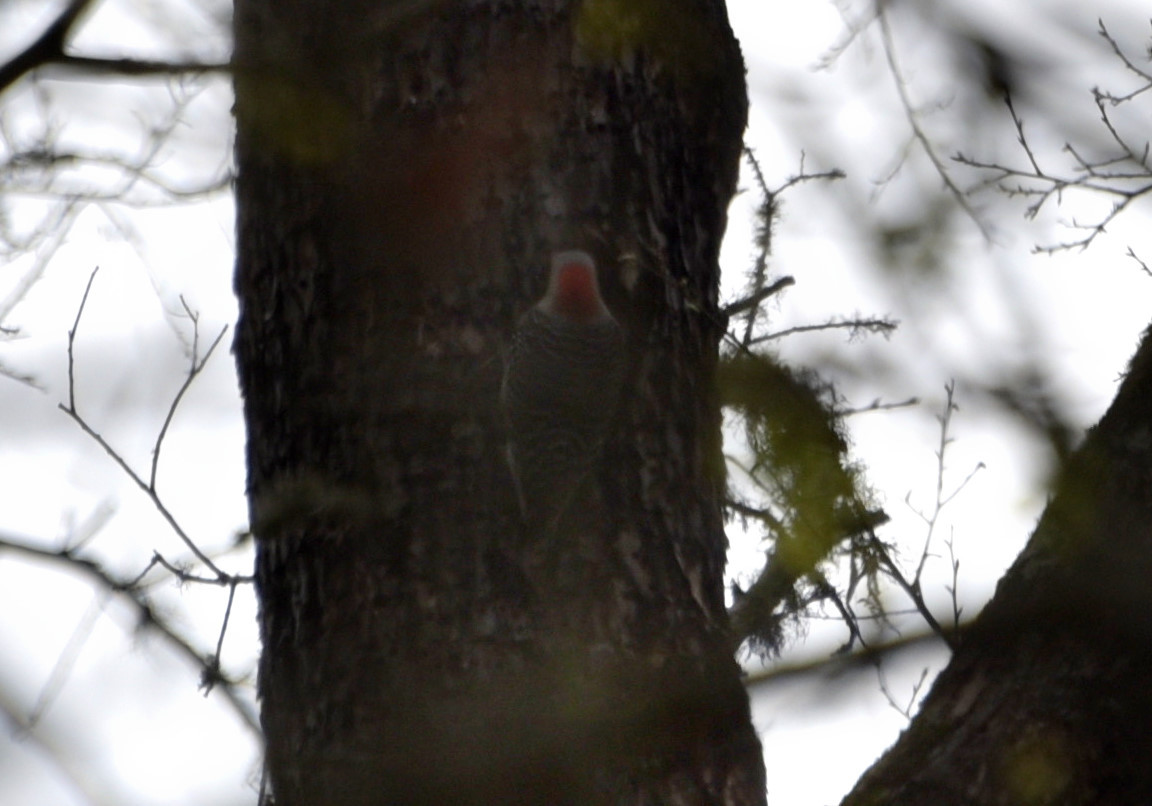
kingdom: Animalia
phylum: Chordata
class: Aves
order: Piciformes
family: Picidae
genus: Melanerpes
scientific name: Melanerpes carolinus
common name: Red-bellied woodpecker
